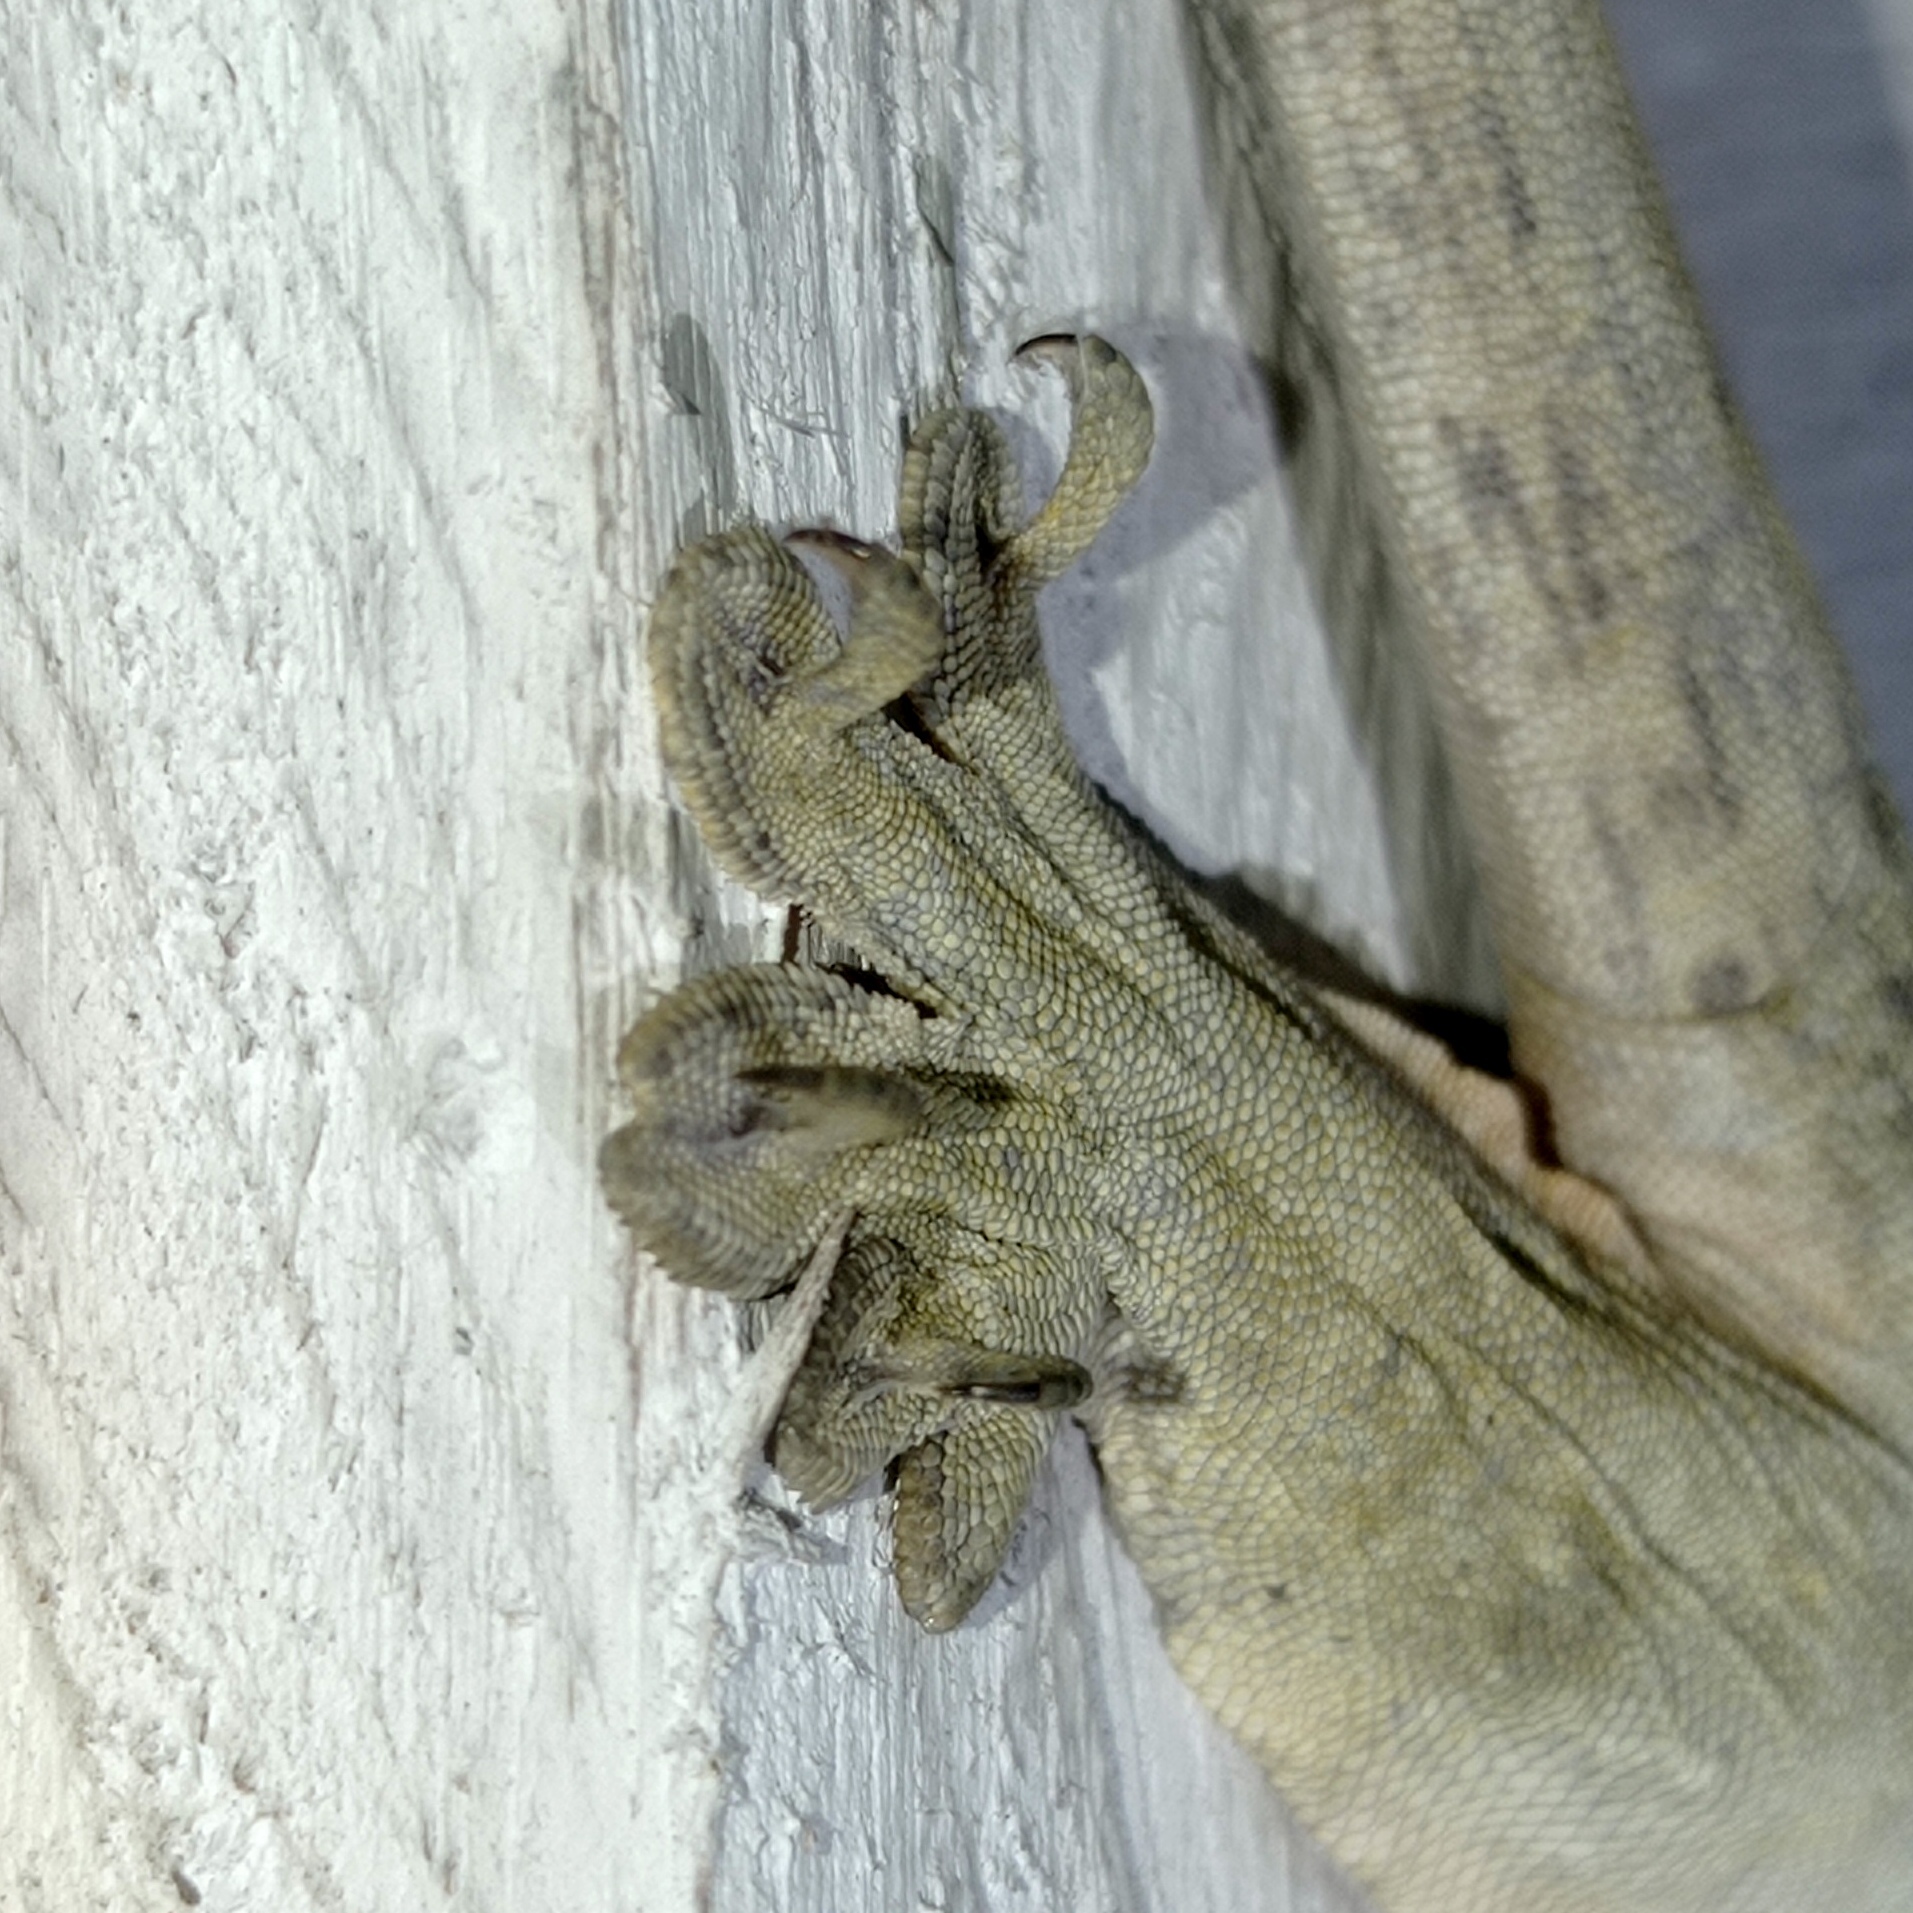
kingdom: Animalia
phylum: Chordata
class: Squamata
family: Gekkonidae
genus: Gehyra
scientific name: Gehyra marginata
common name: Ternate dtella
